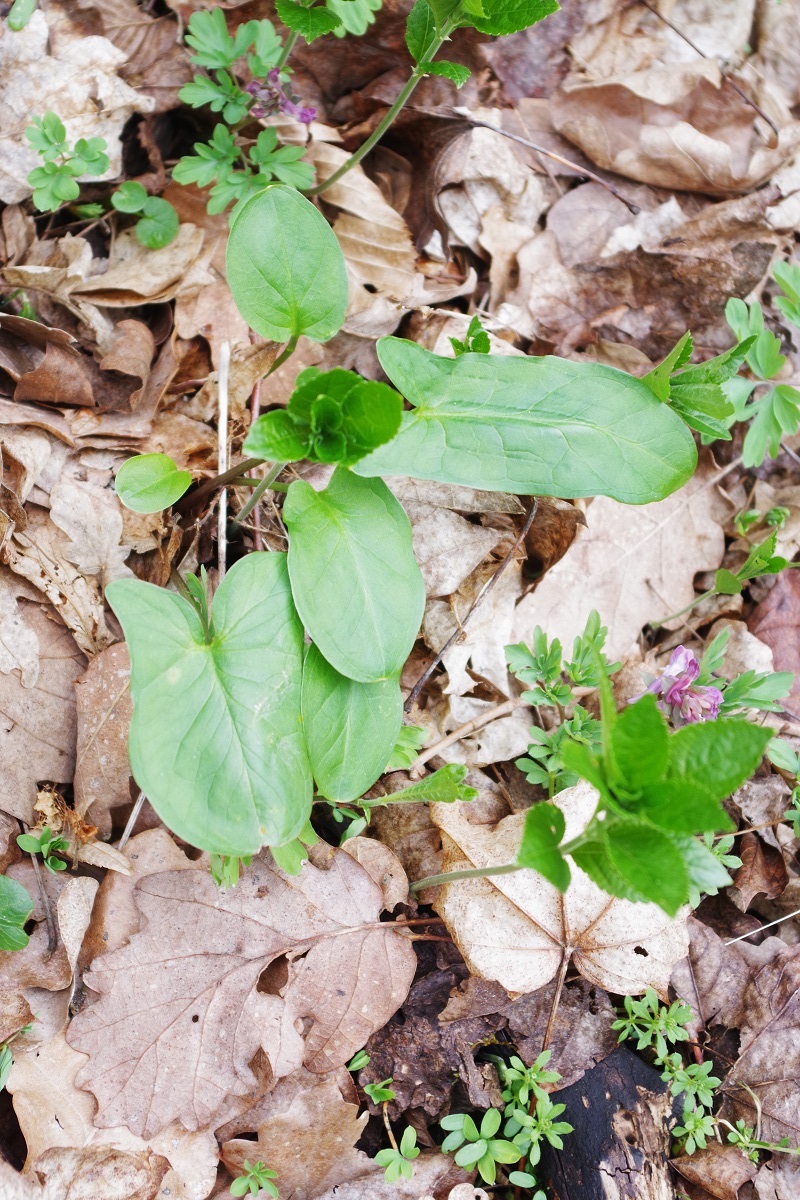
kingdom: Plantae
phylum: Tracheophyta
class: Liliopsida
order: Alismatales
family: Araceae
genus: Arum
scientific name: Arum maculatum
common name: Lords-and-ladies
